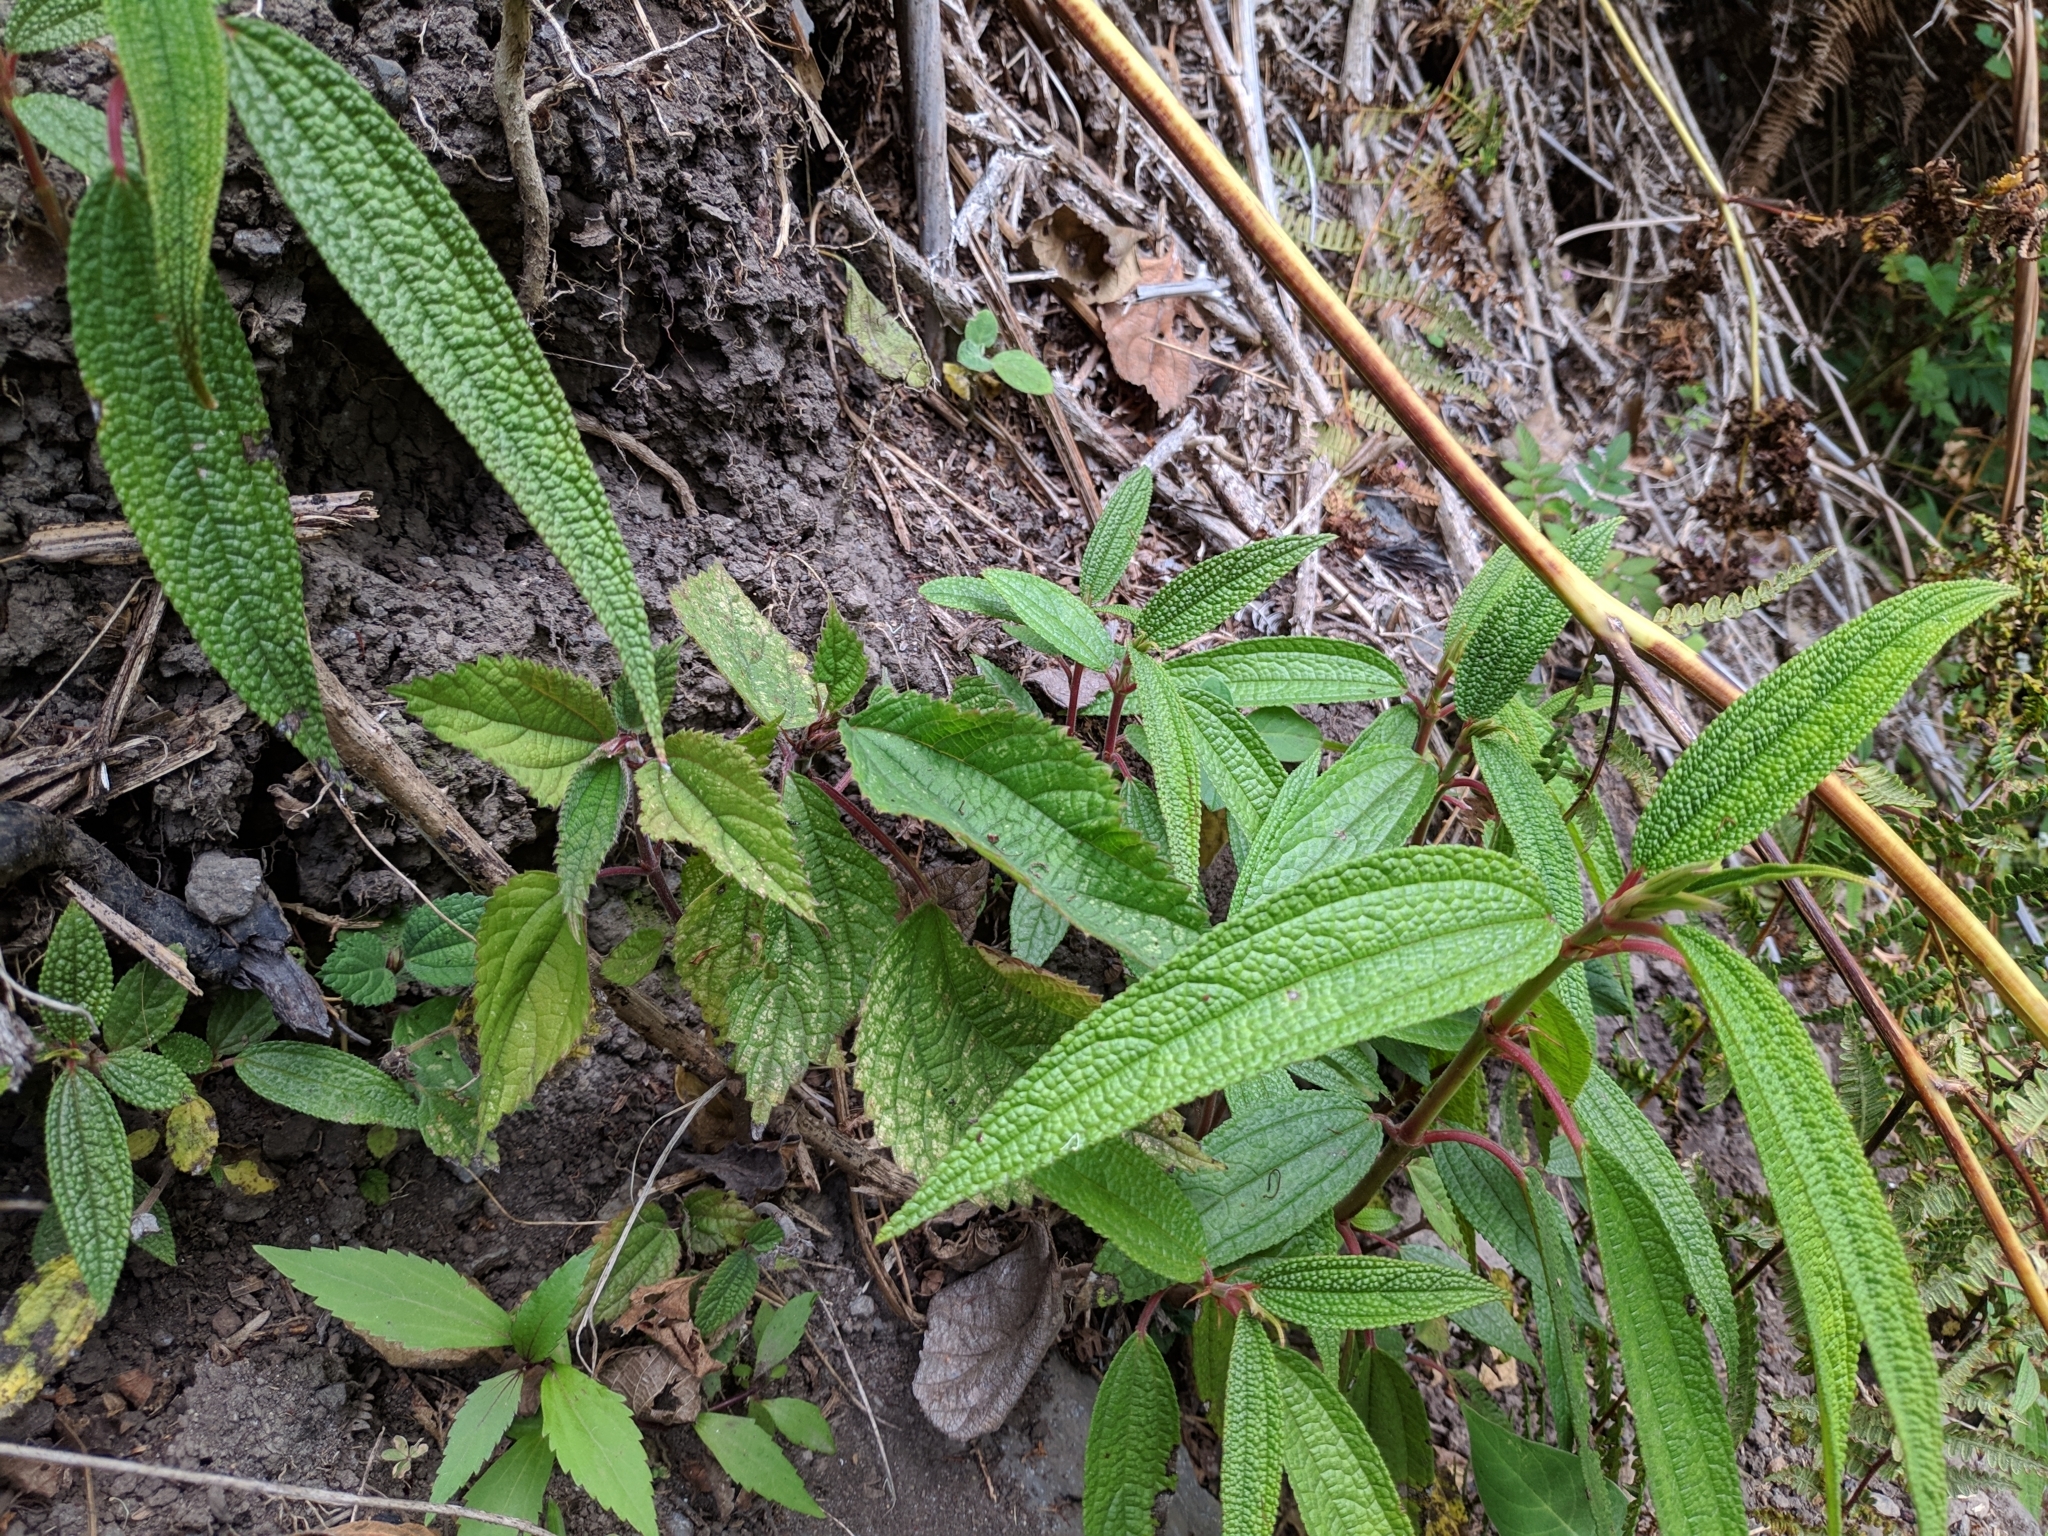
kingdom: Plantae
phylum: Tracheophyta
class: Magnoliopsida
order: Rosales
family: Urticaceae
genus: Boehmeria
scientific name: Boehmeria penduliflora
